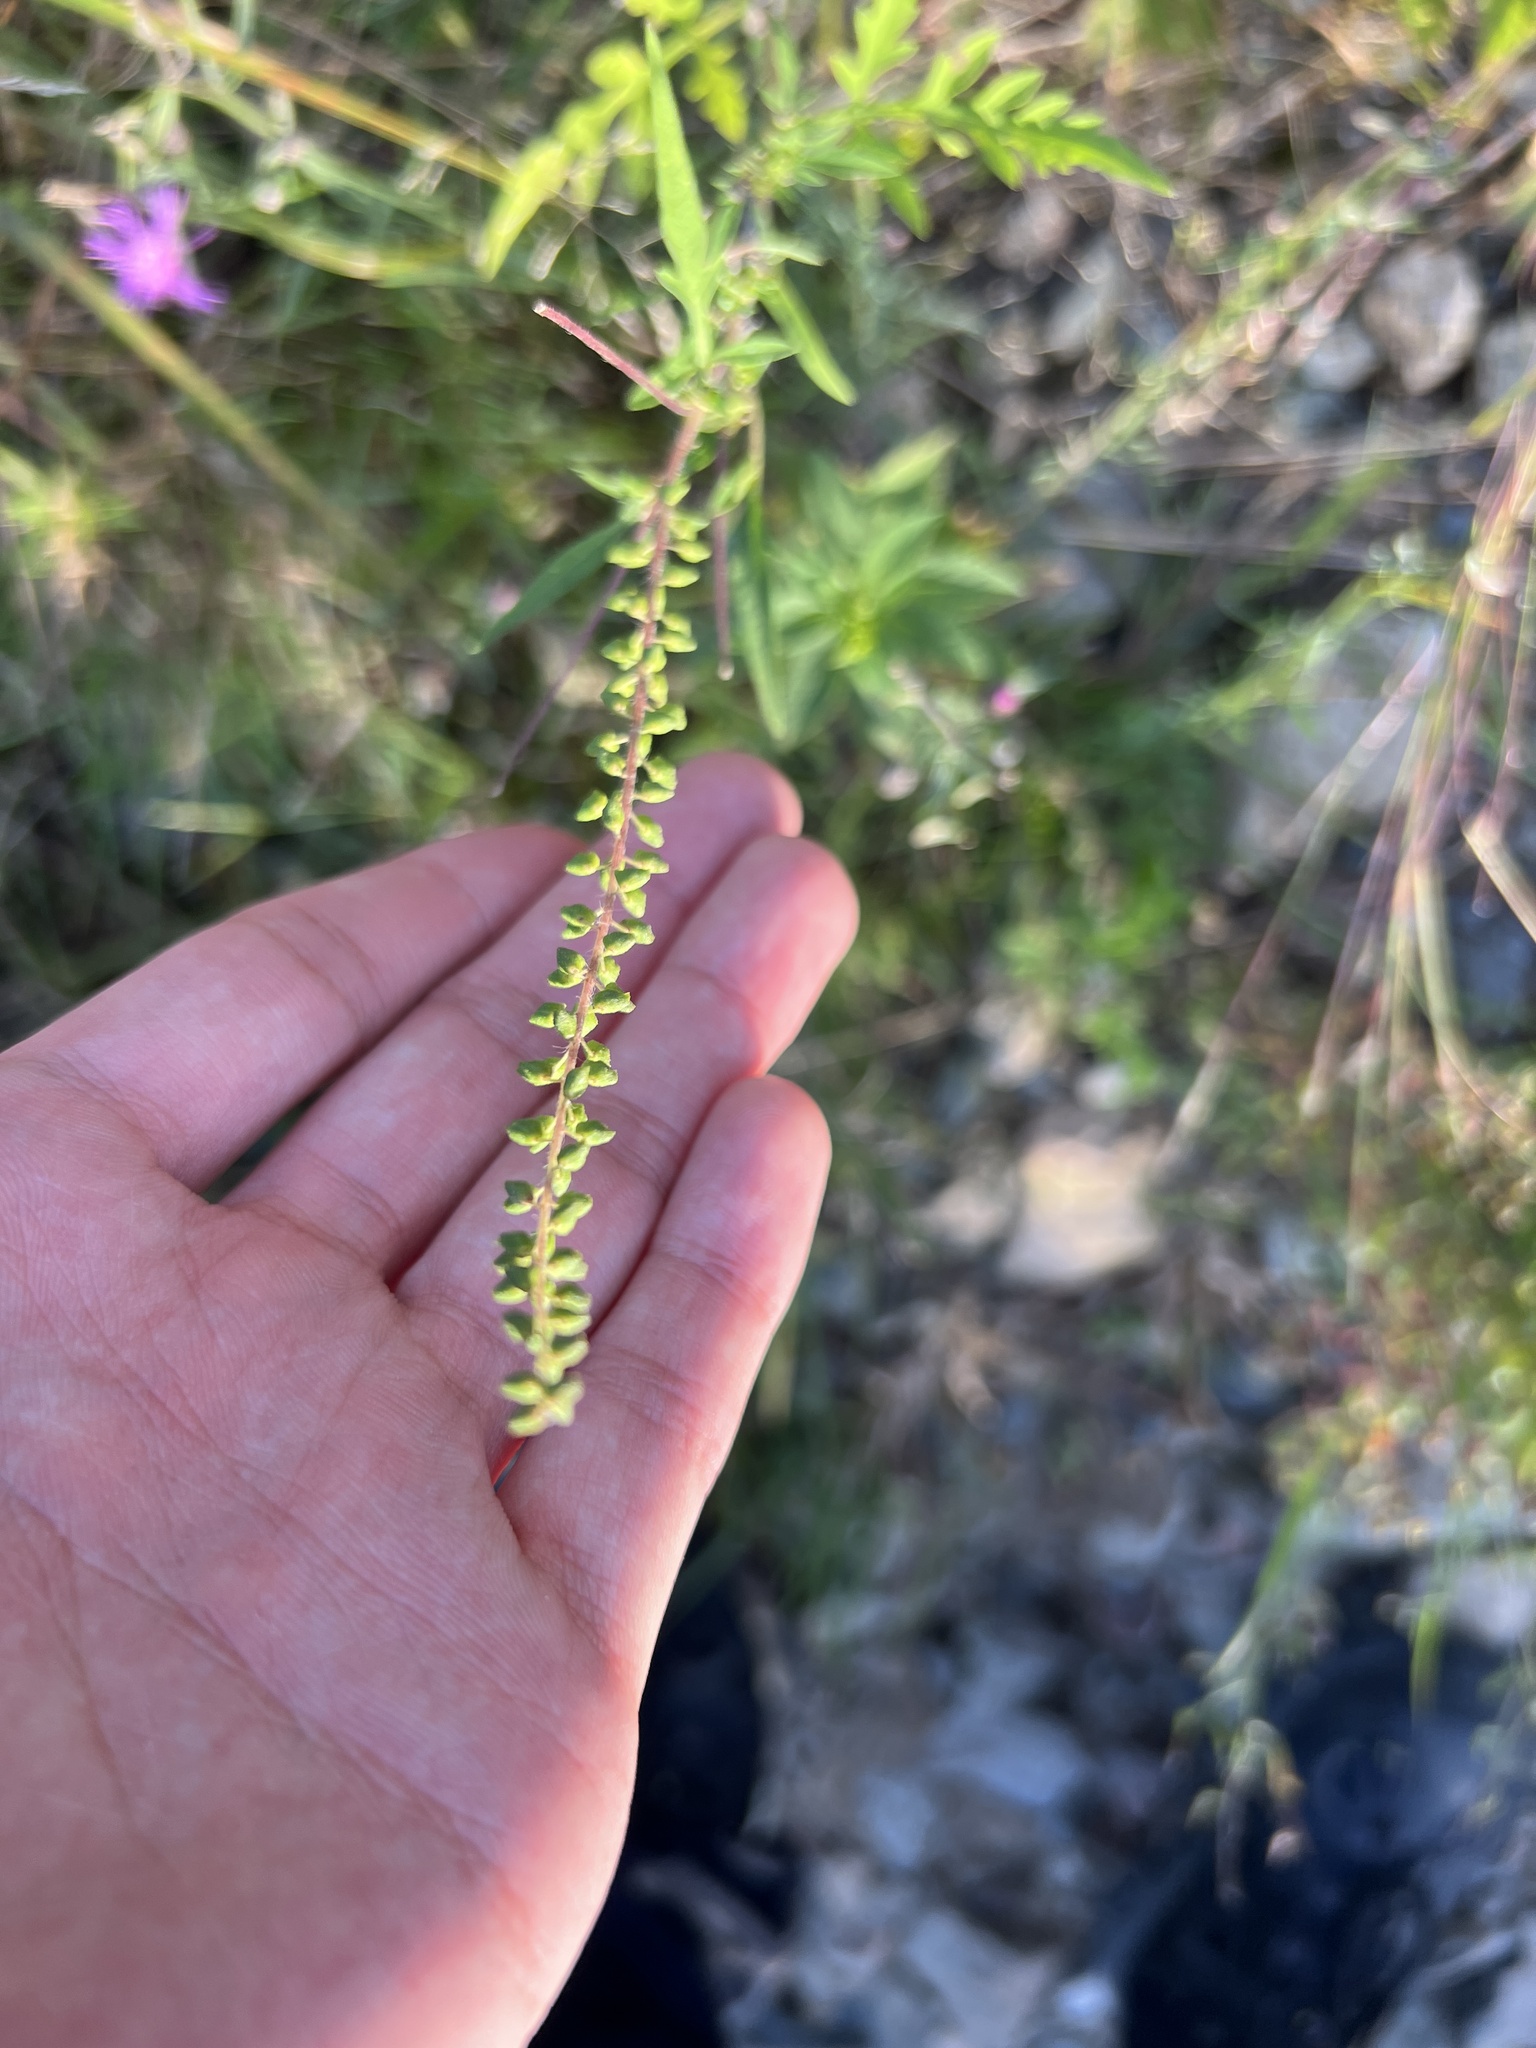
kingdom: Plantae
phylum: Tracheophyta
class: Magnoliopsida
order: Asterales
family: Asteraceae
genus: Ambrosia
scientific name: Ambrosia artemisiifolia
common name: Annual ragweed
